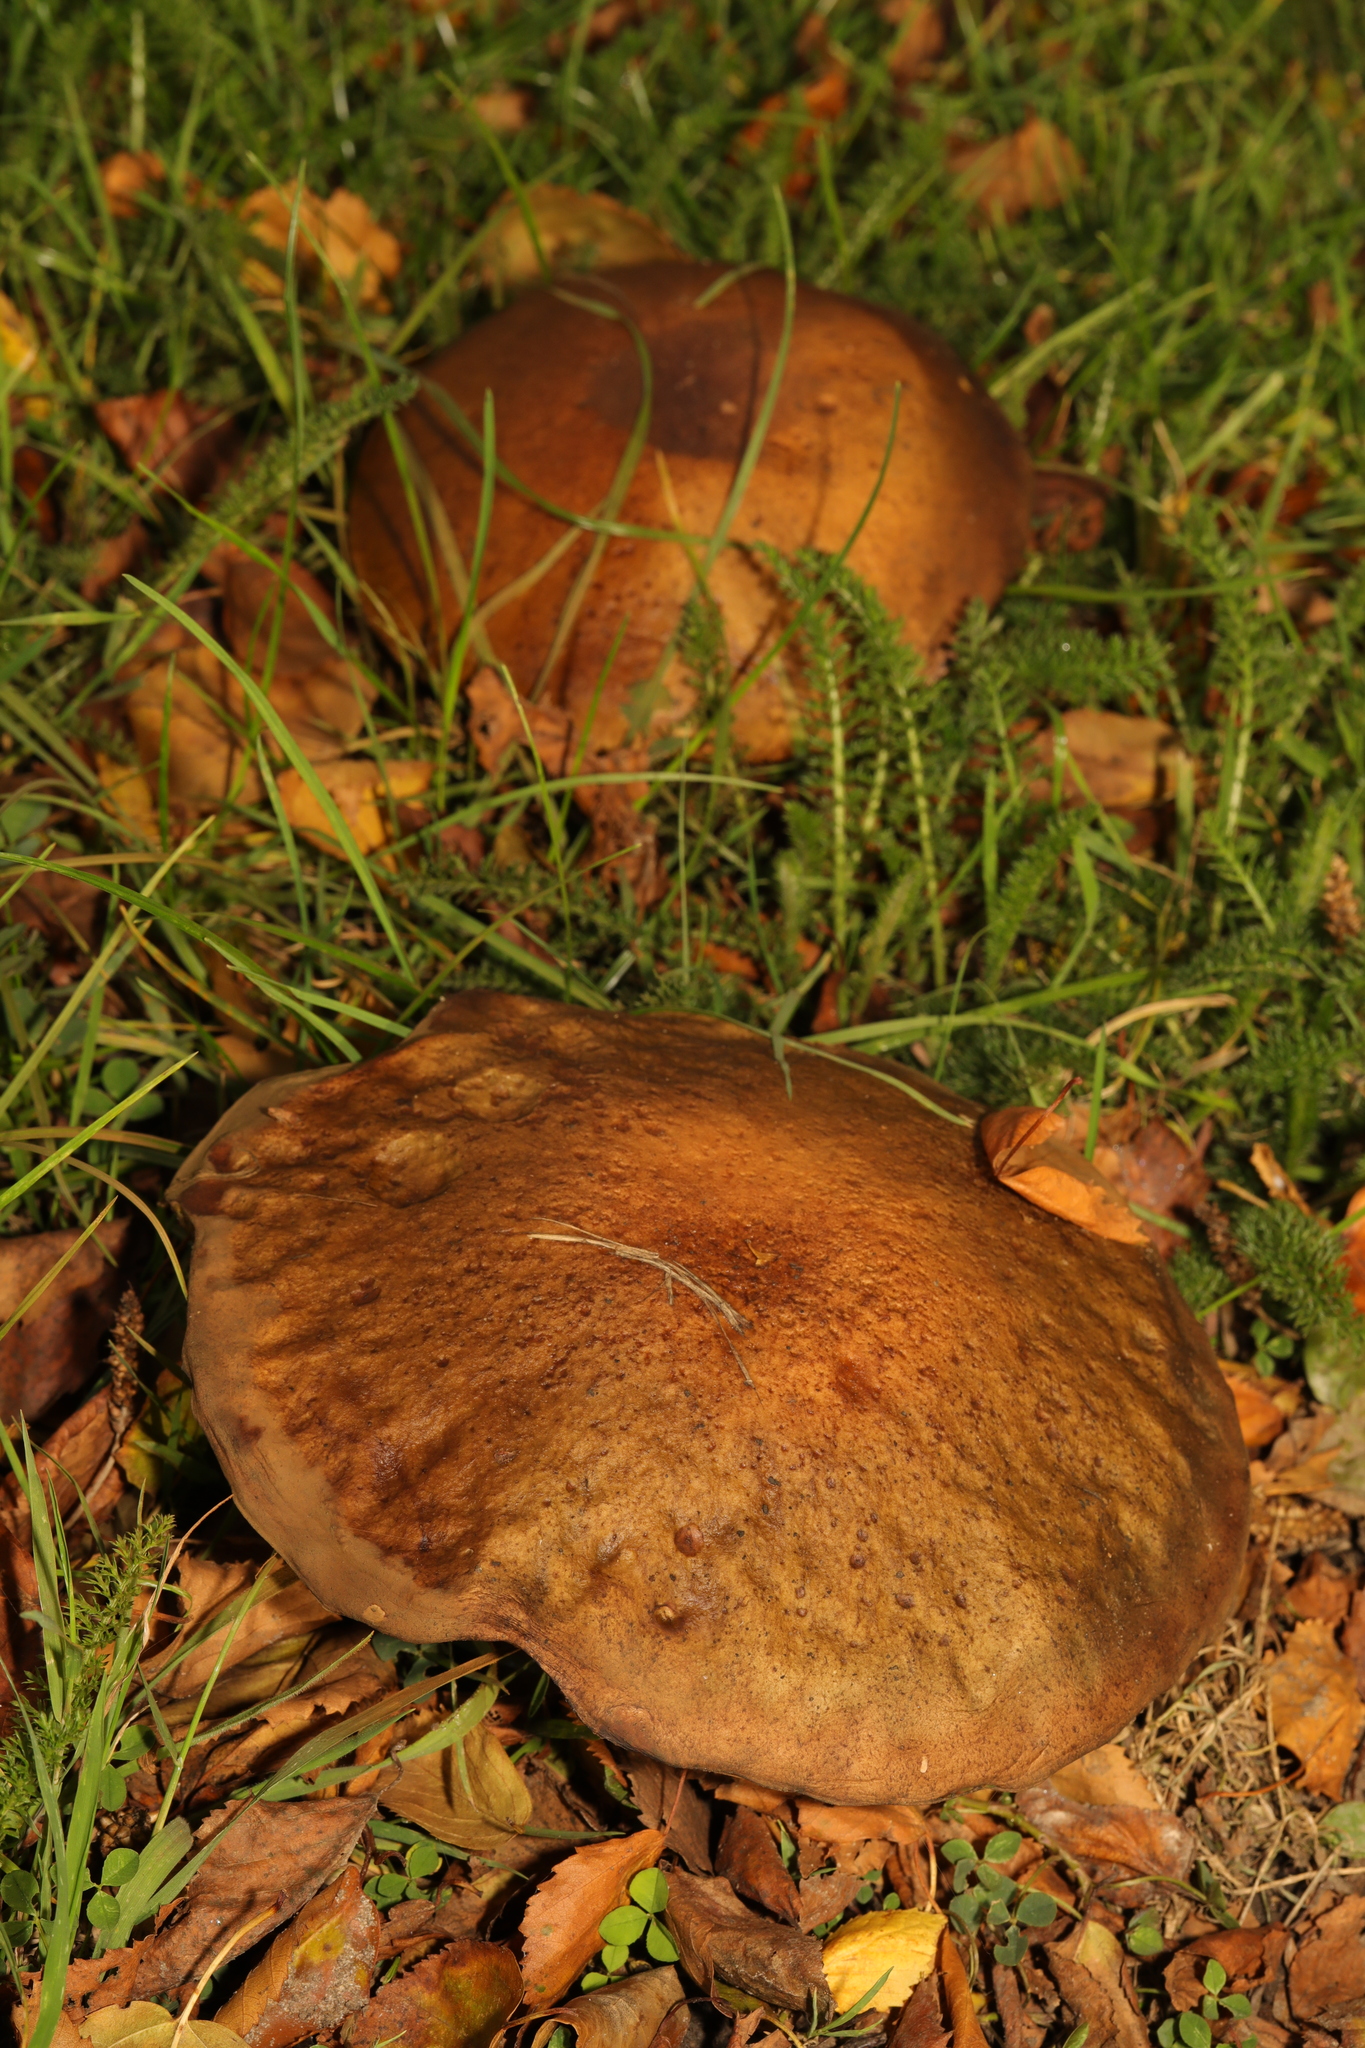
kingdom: Fungi
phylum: Basidiomycota
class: Agaricomycetes
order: Boletales
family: Boletaceae
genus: Leccinum
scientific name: Leccinum scabrum
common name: Blushing bolete
